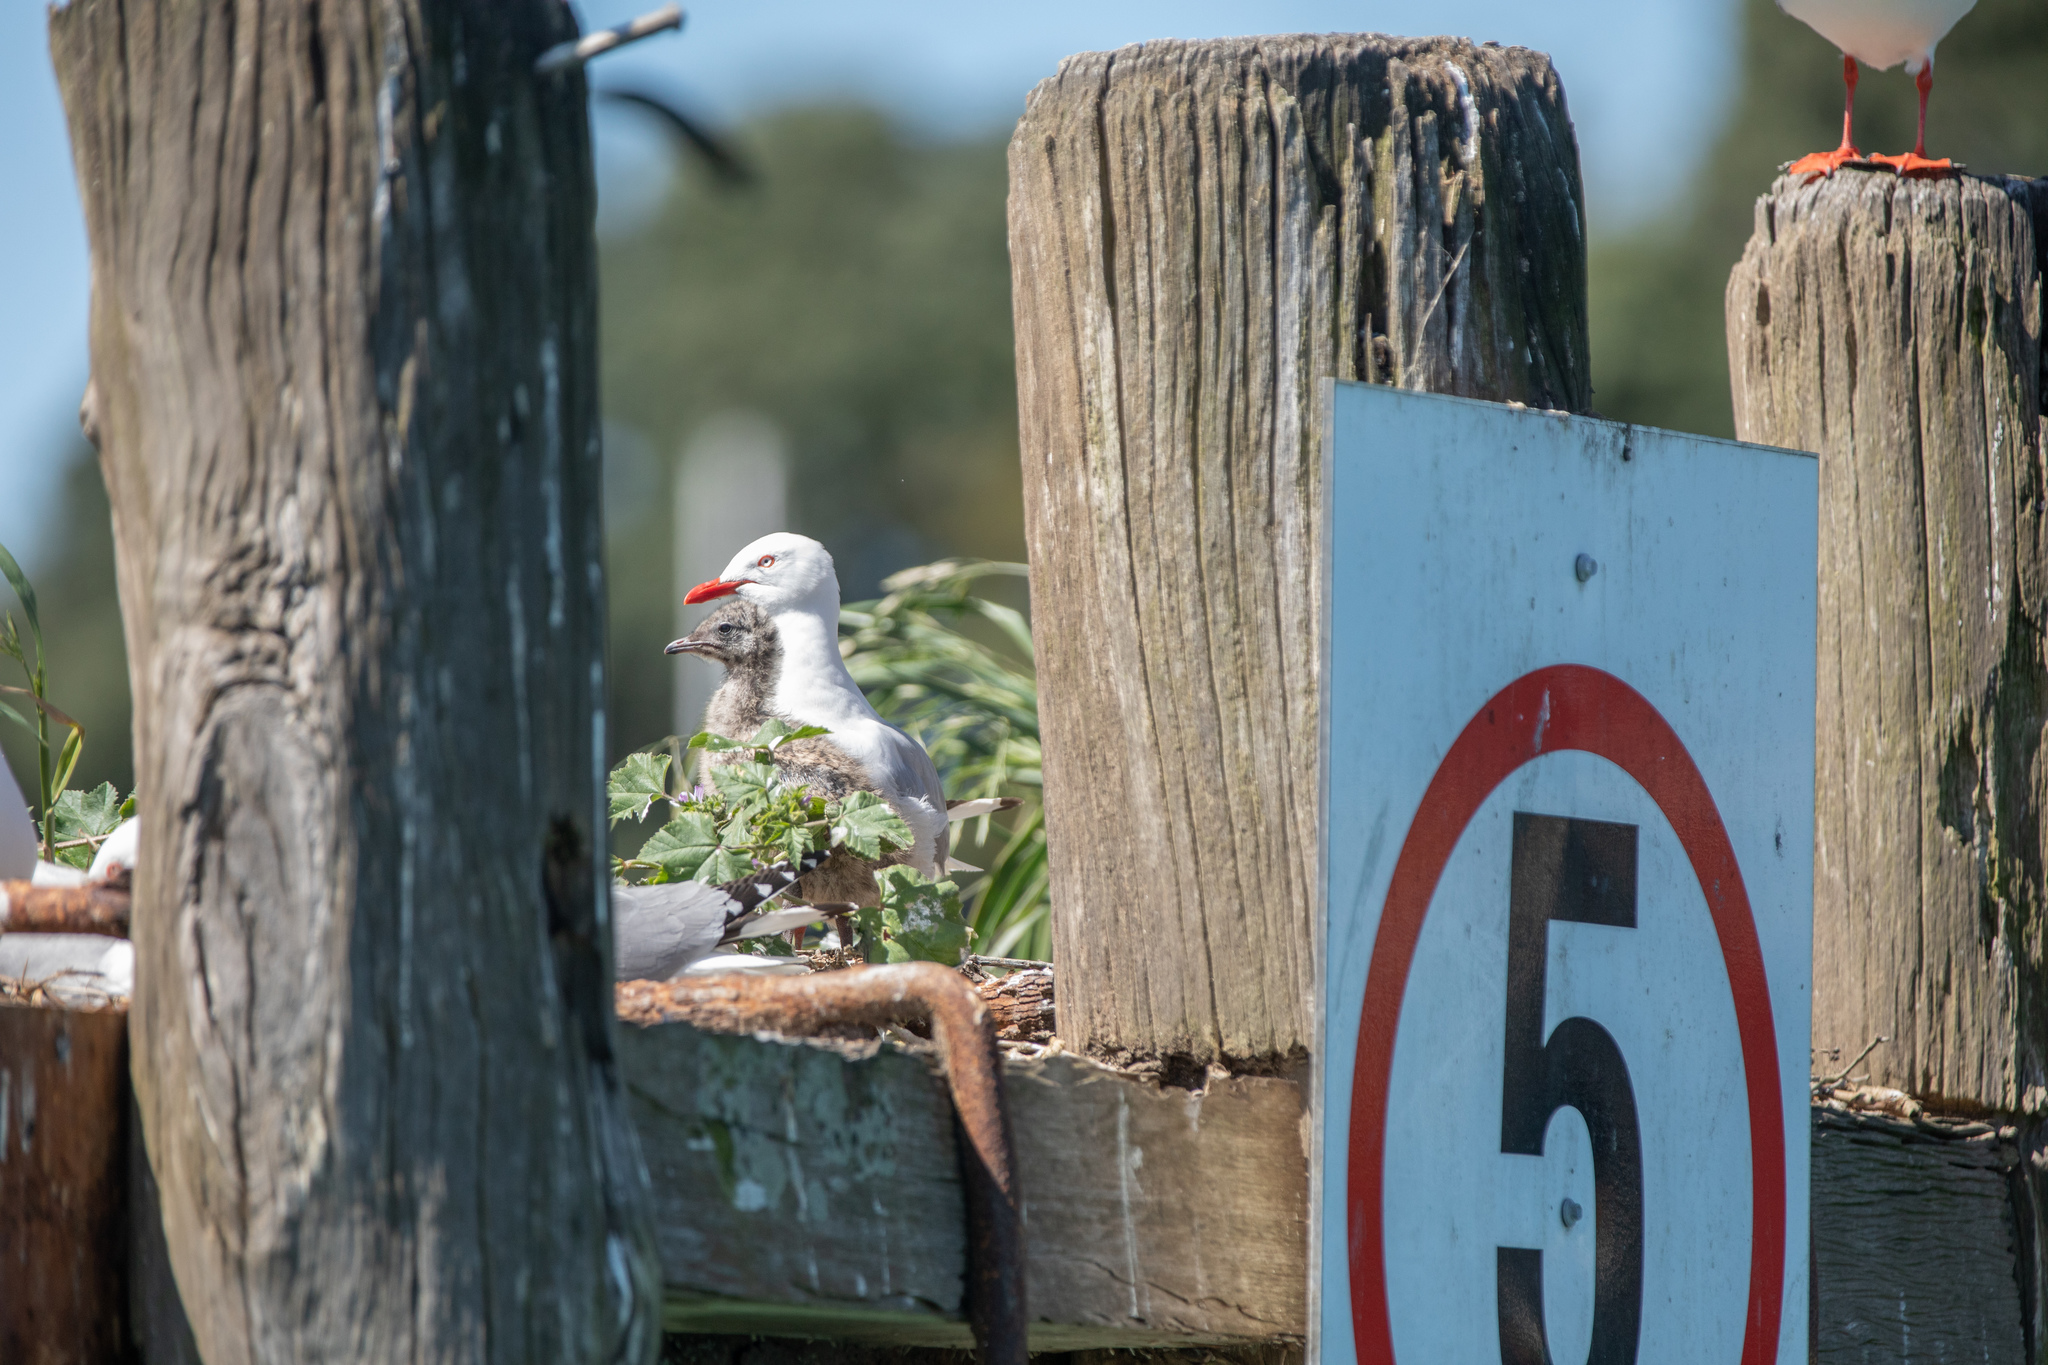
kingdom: Animalia
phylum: Chordata
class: Aves
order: Charadriiformes
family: Laridae
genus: Chroicocephalus
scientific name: Chroicocephalus novaehollandiae
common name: Silver gull
